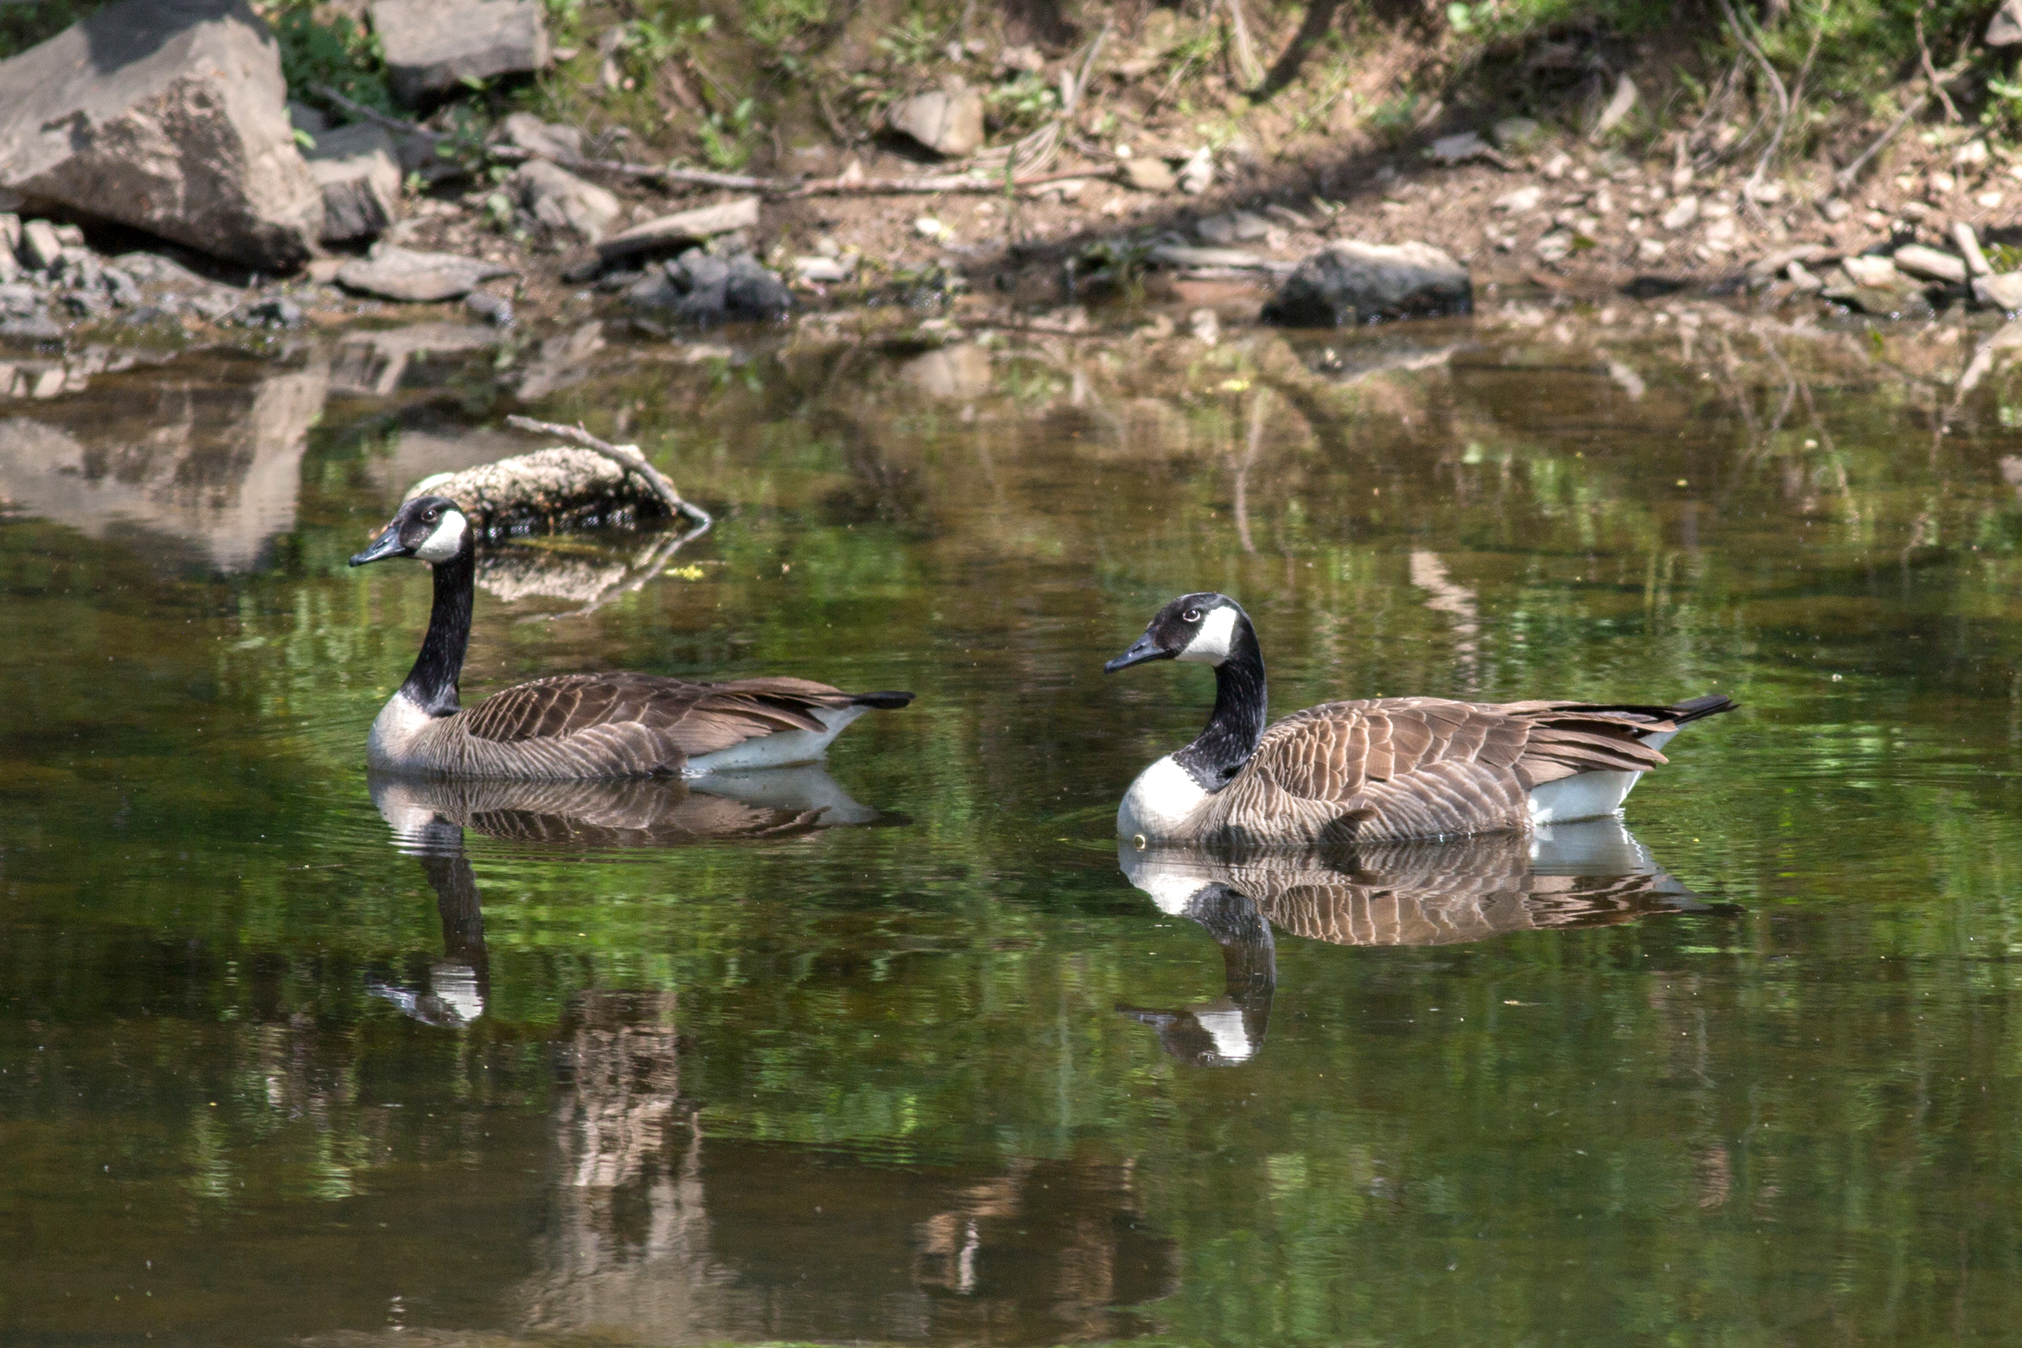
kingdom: Animalia
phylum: Chordata
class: Aves
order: Anseriformes
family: Anatidae
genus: Branta
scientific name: Branta canadensis
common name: Canada goose
